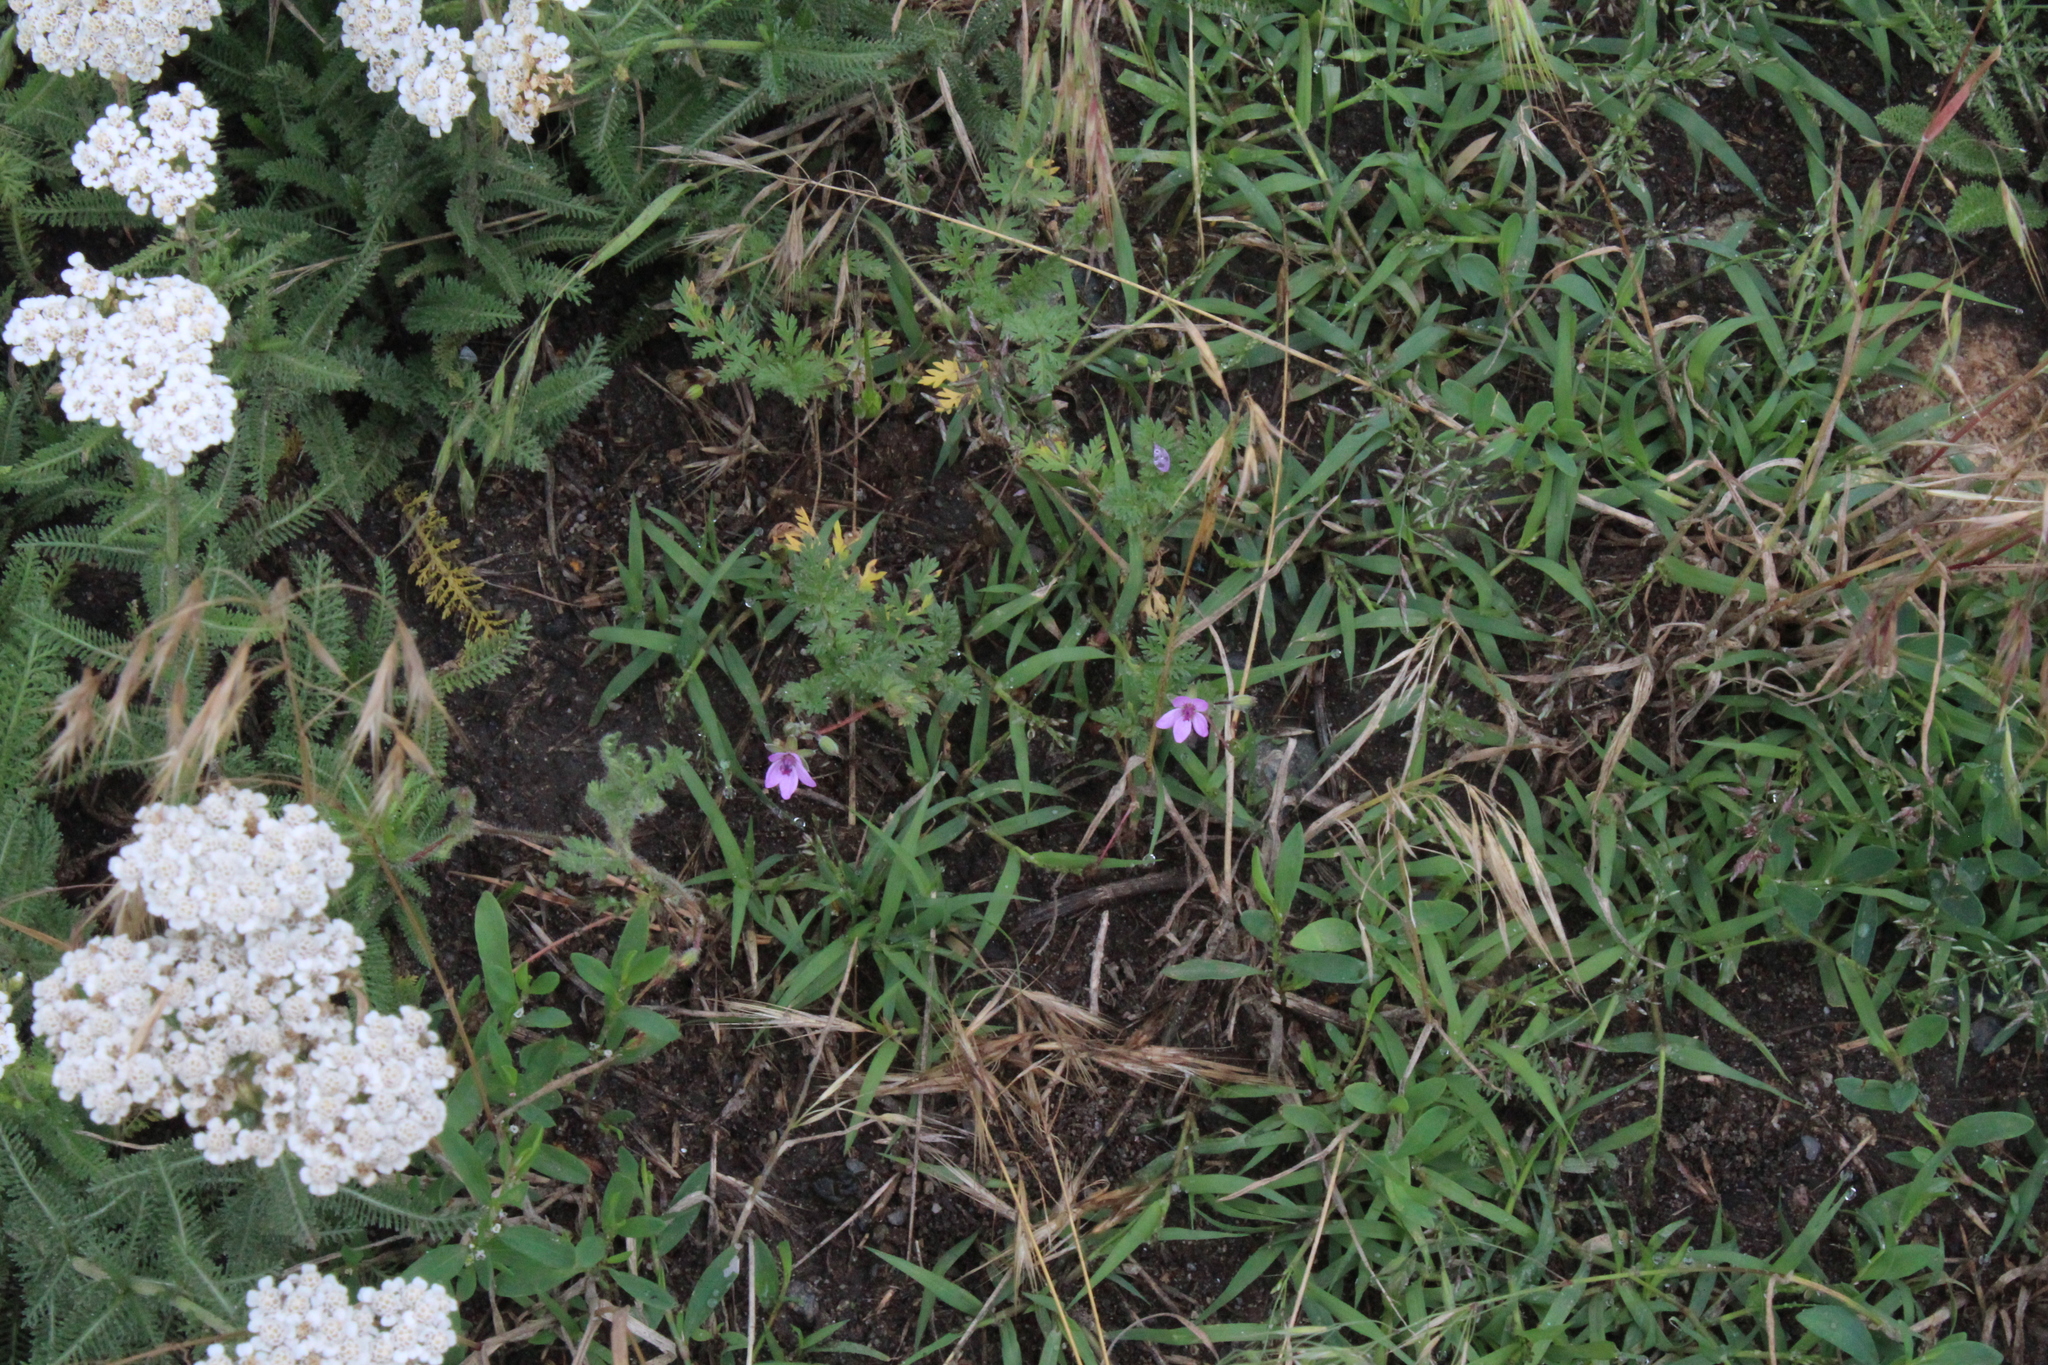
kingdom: Plantae
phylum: Tracheophyta
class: Magnoliopsida
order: Geraniales
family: Geraniaceae
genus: Erodium
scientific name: Erodium cicutarium
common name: Common stork's-bill
